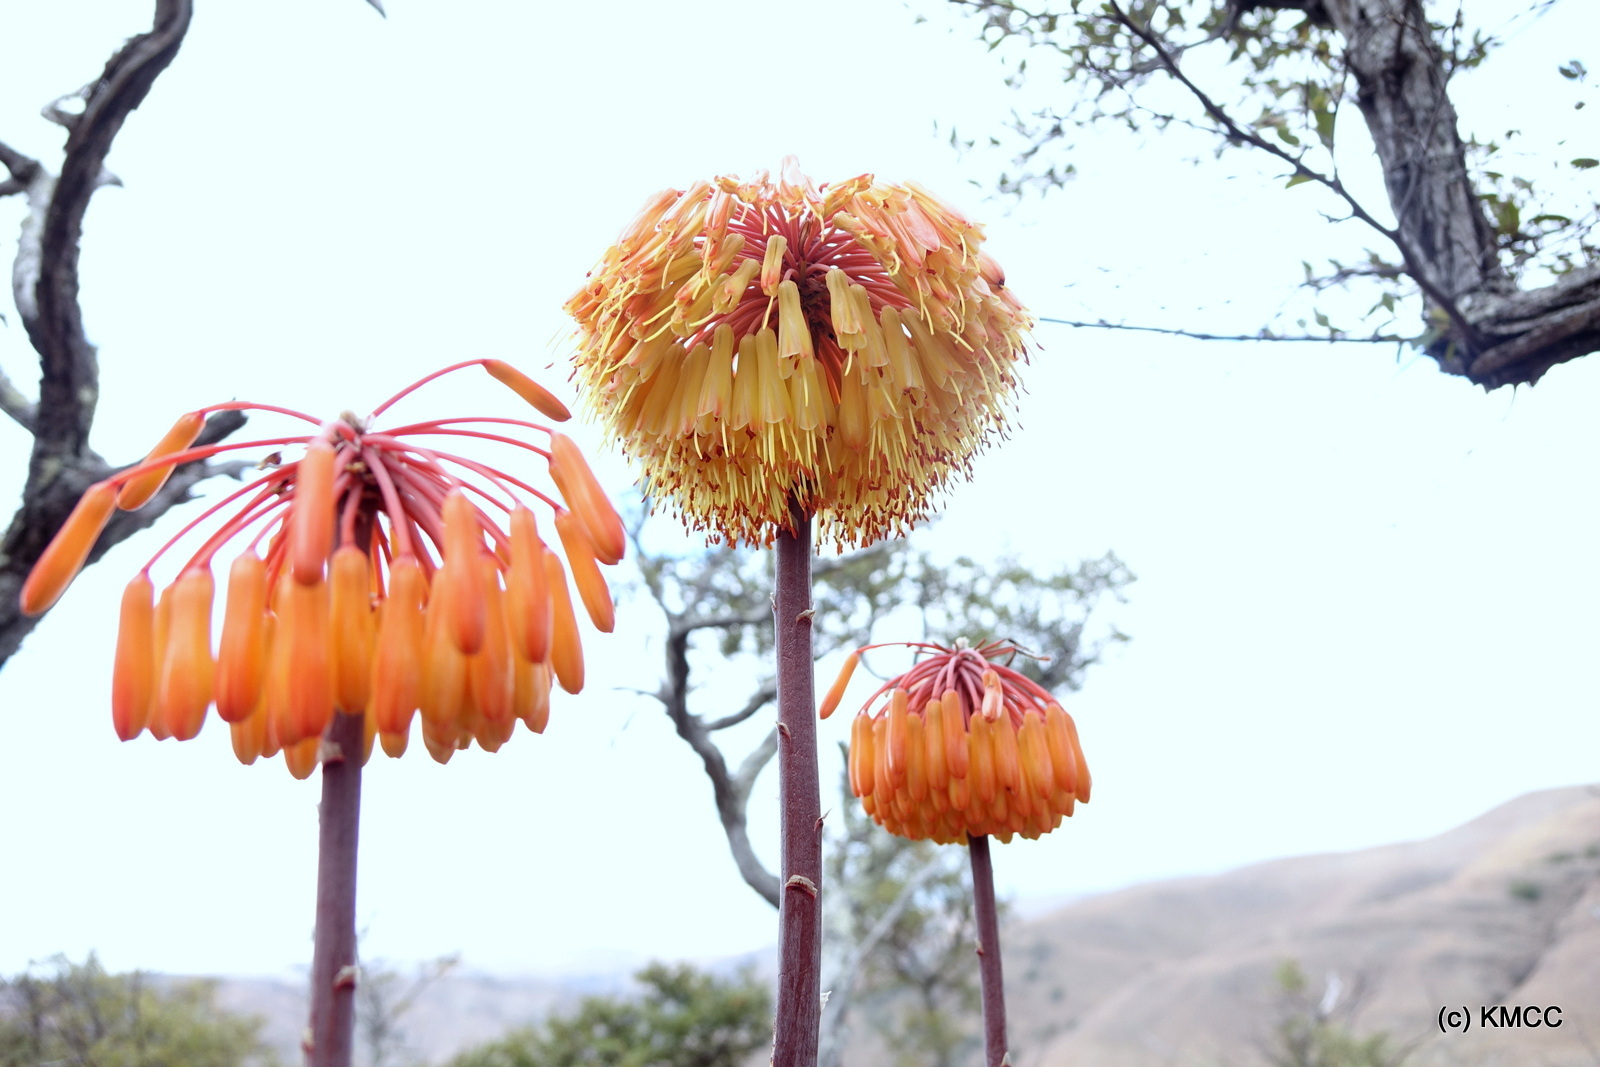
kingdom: Plantae
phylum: Tracheophyta
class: Liliopsida
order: Asparagales
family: Asphodelaceae
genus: Aloe
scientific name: Aloe capitata
